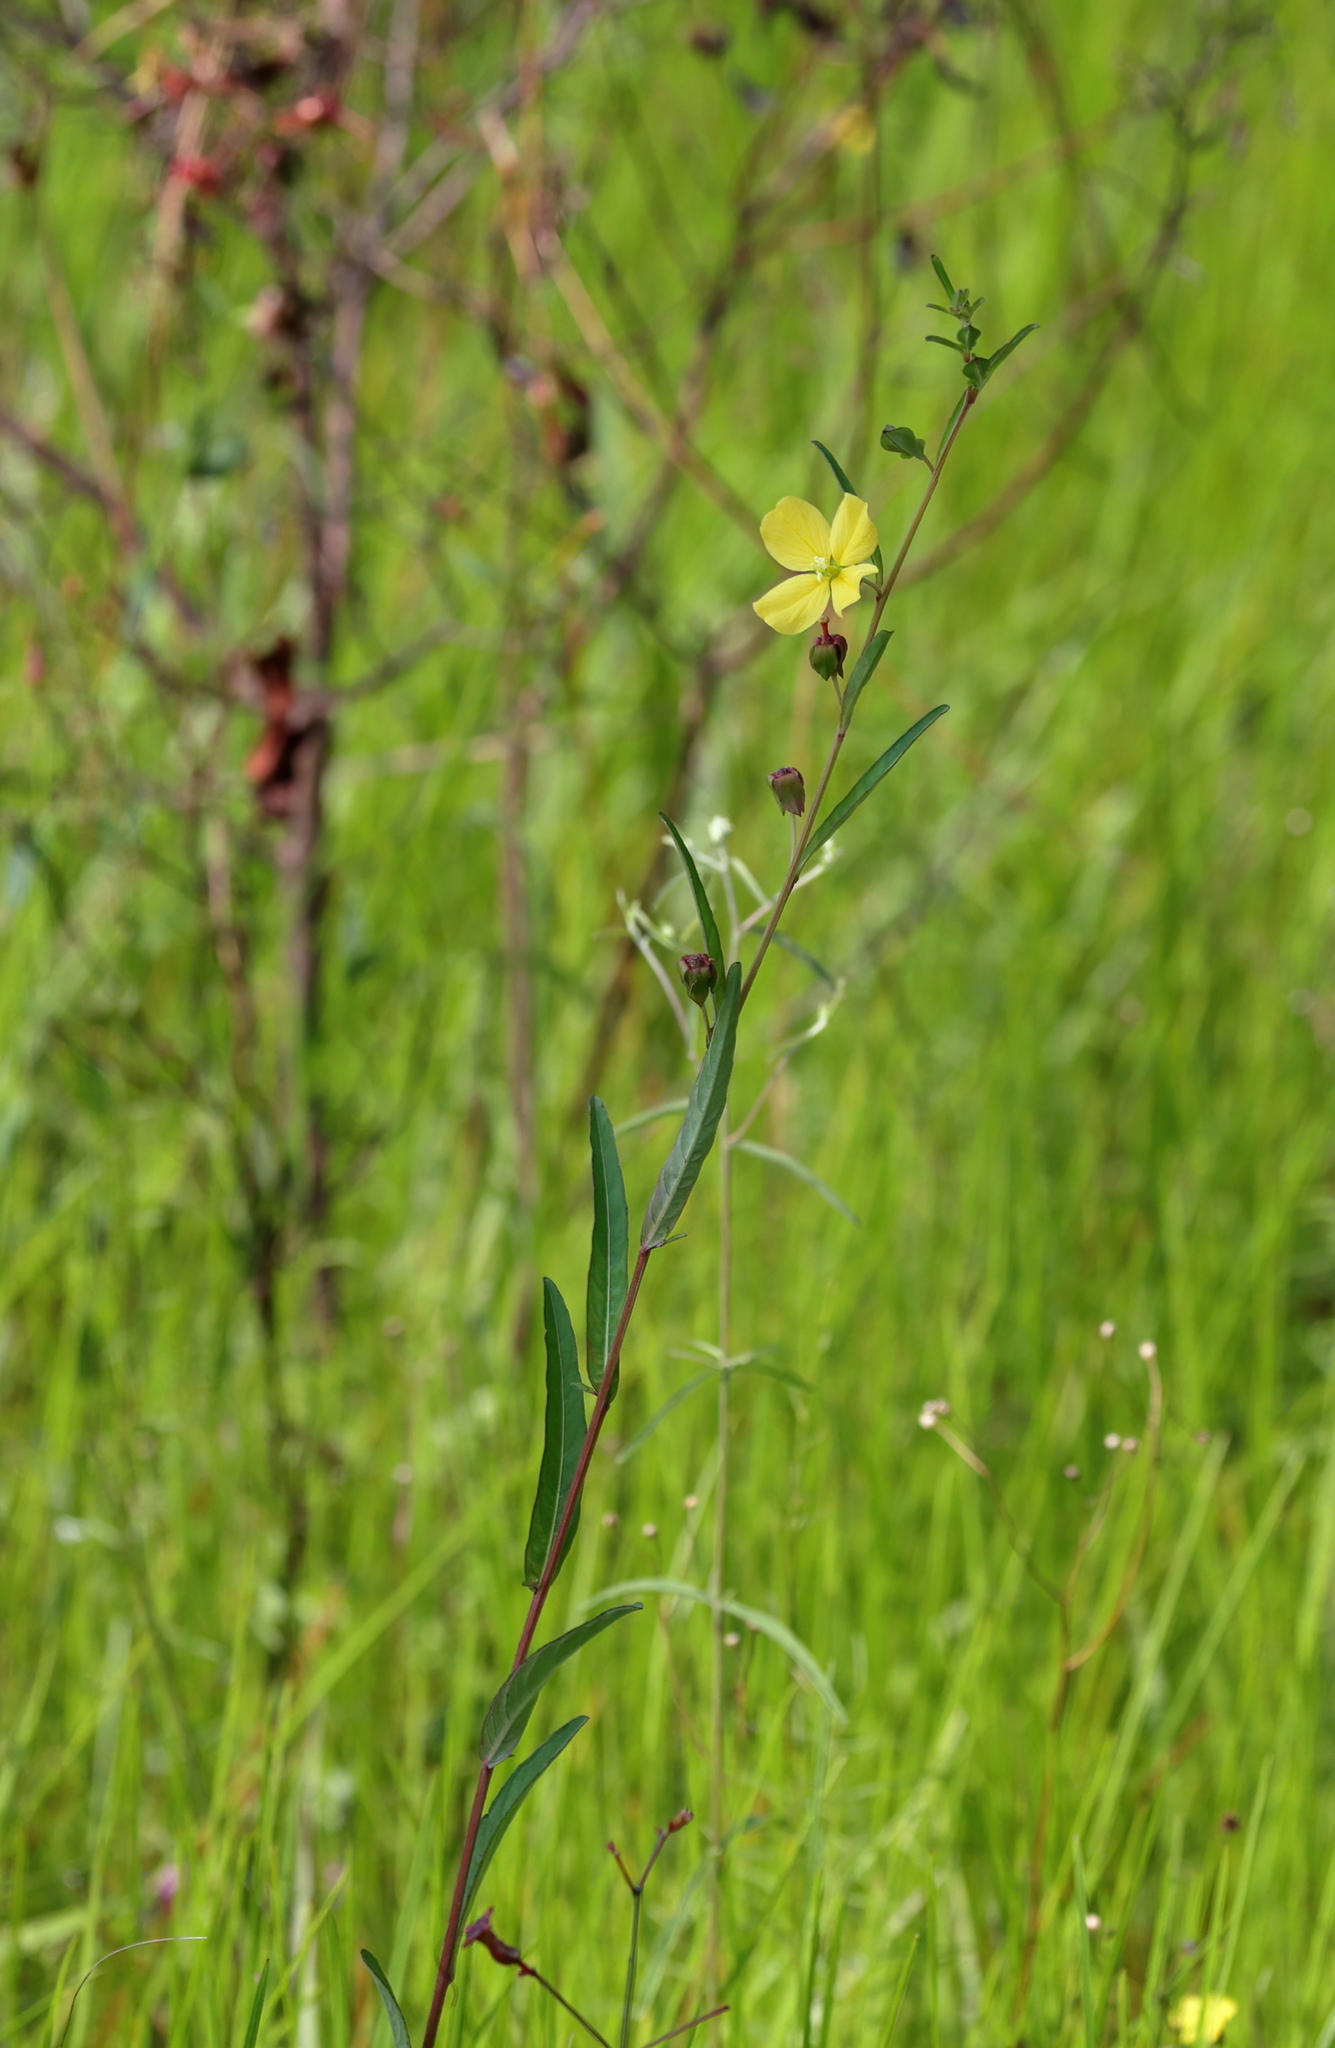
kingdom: Plantae
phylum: Tracheophyta
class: Magnoliopsida
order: Myrtales
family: Onagraceae
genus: Ludwigia
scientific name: Ludwigia virgata
